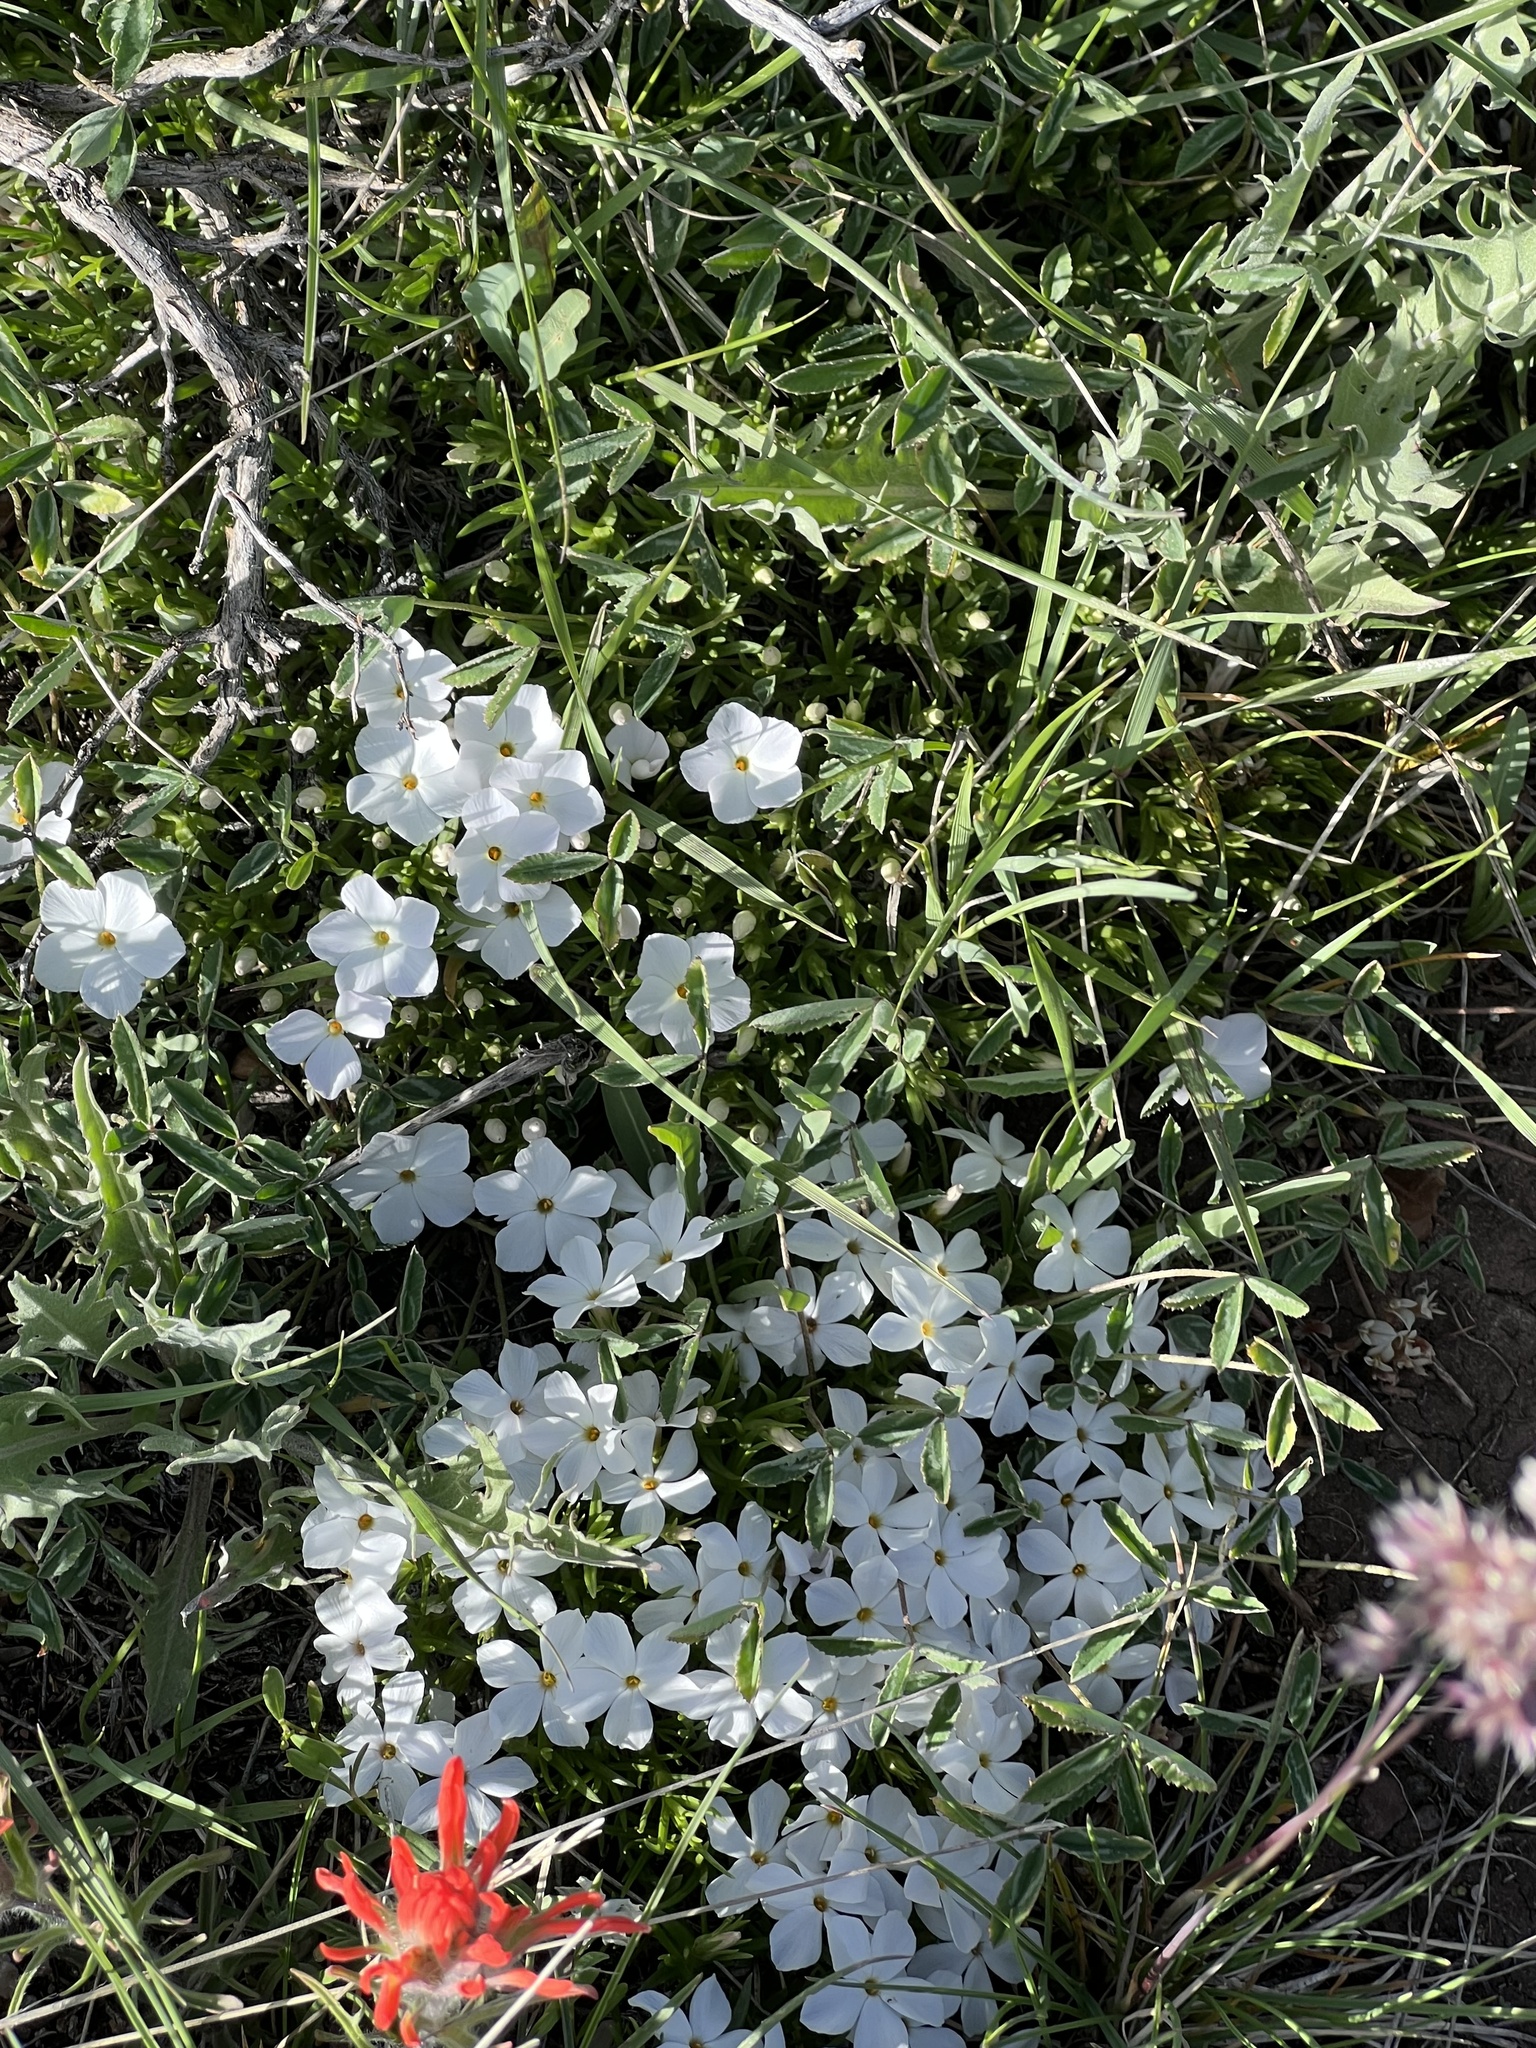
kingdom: Plantae
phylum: Tracheophyta
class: Magnoliopsida
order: Ericales
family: Polemoniaceae
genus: Phlox
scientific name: Phlox multiflora
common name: Rocky mountain phlox
